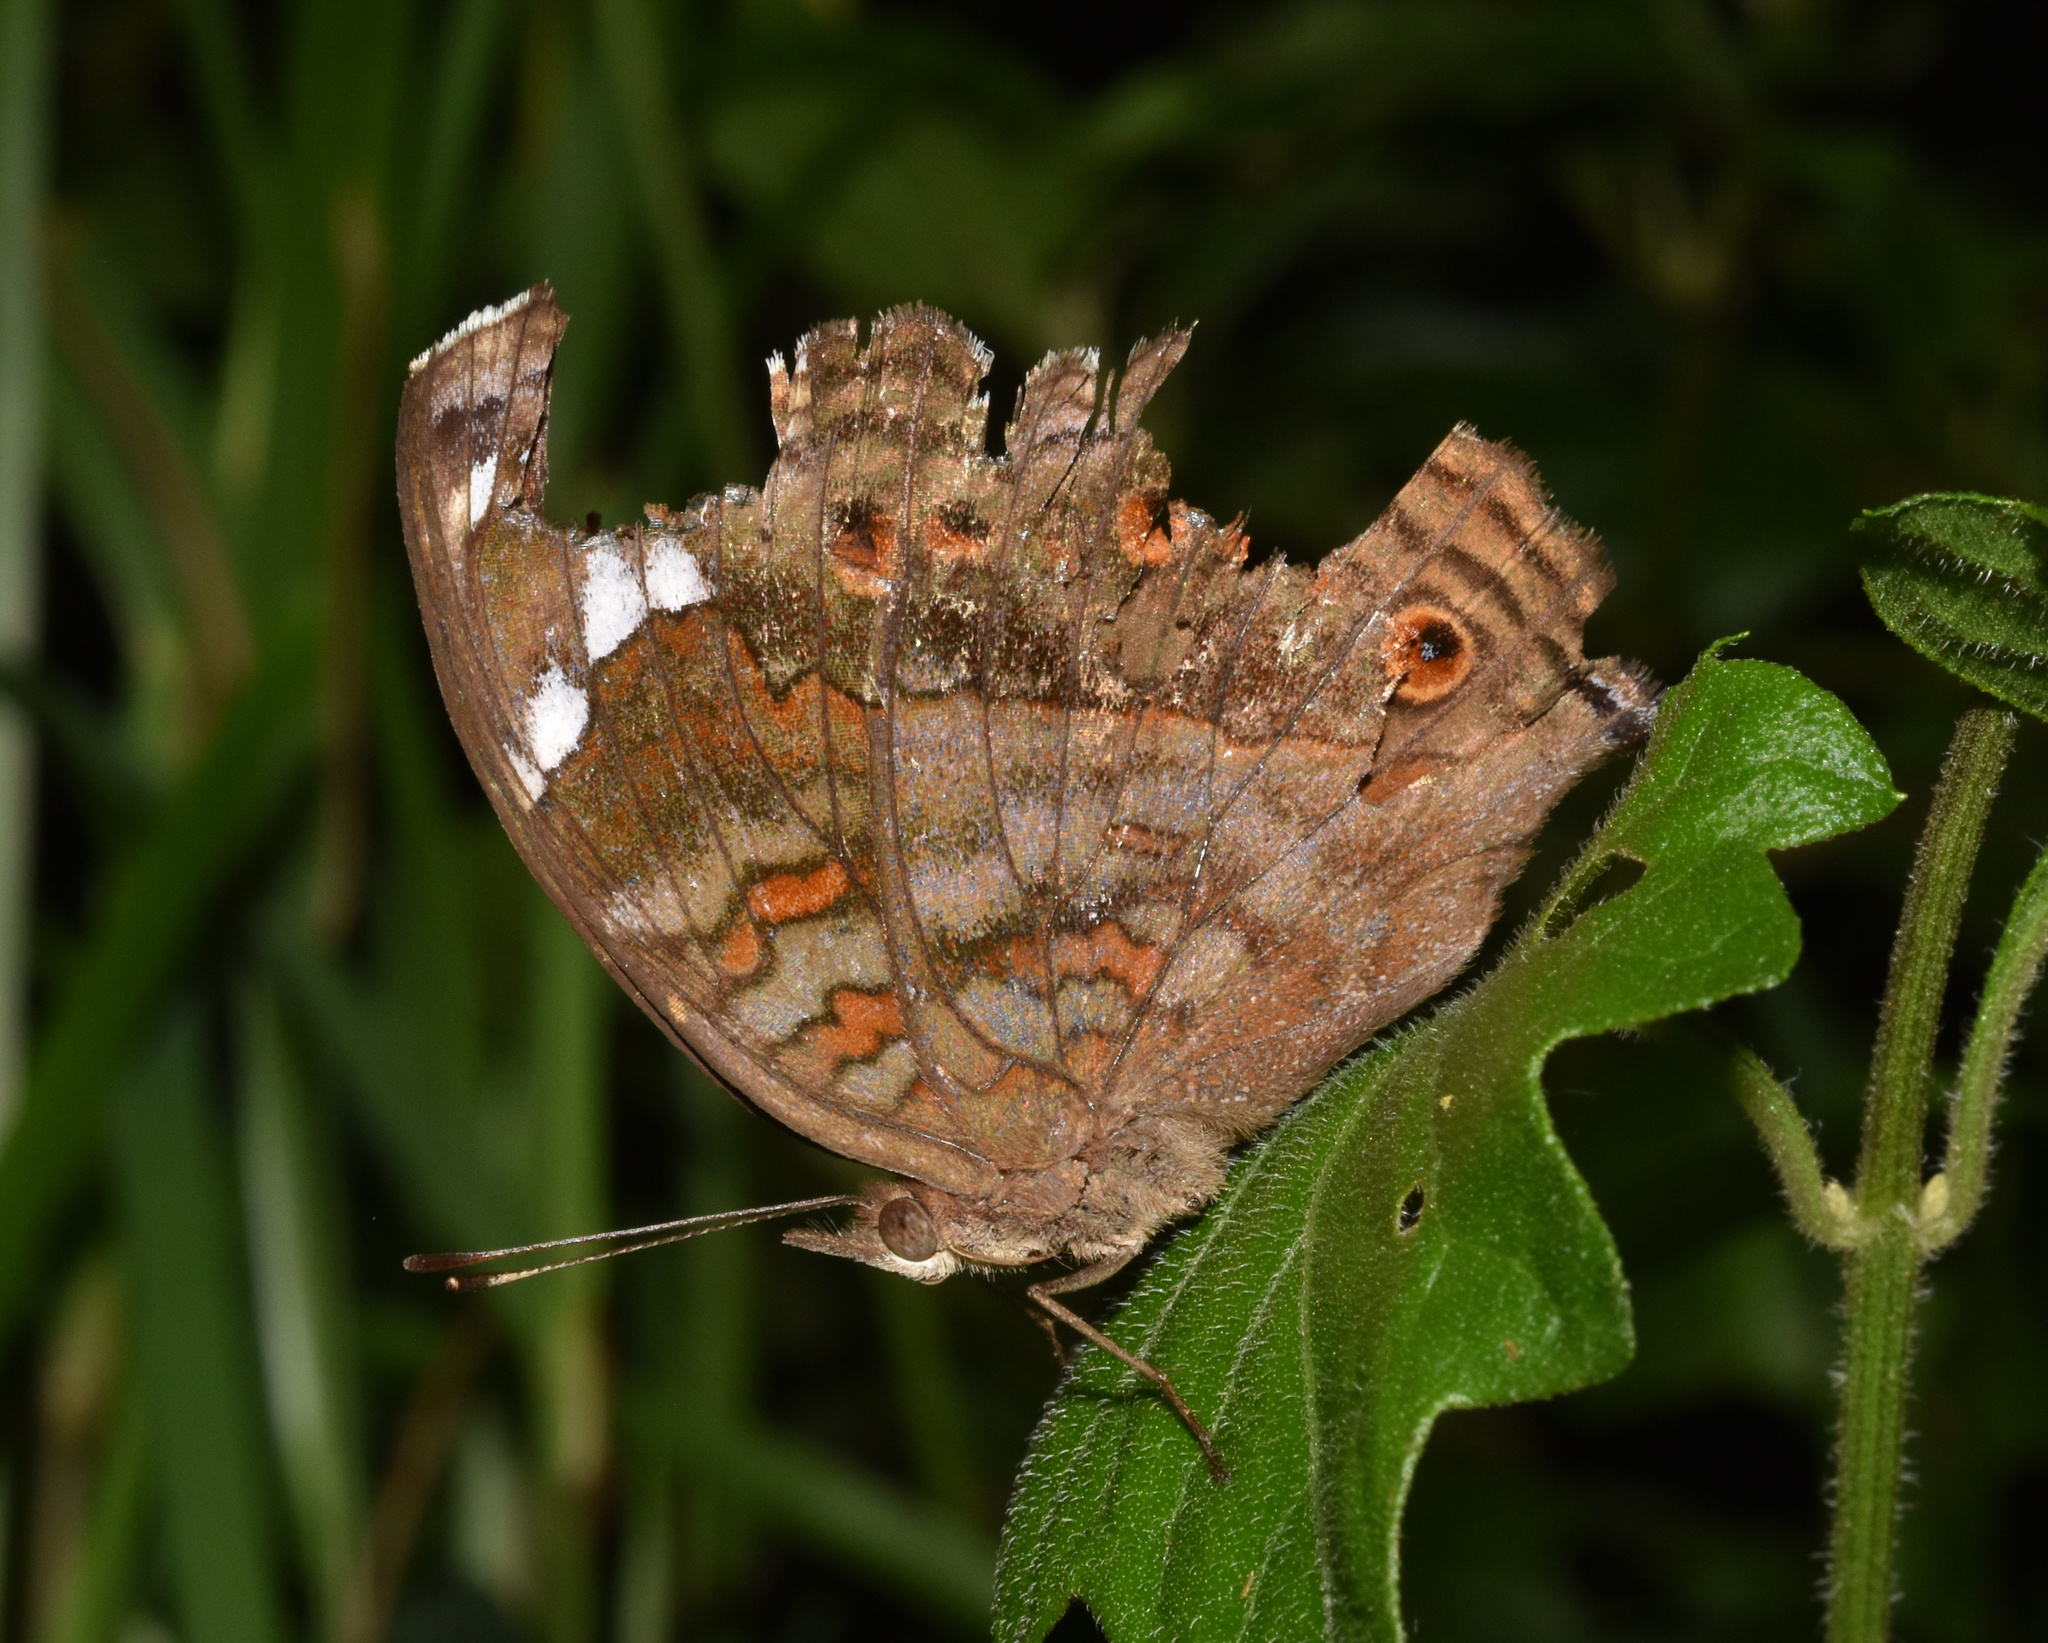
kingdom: Animalia
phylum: Arthropoda
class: Insecta
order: Lepidoptera
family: Nymphalidae
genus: Junonia
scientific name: Junonia natalica
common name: Brown pansy
